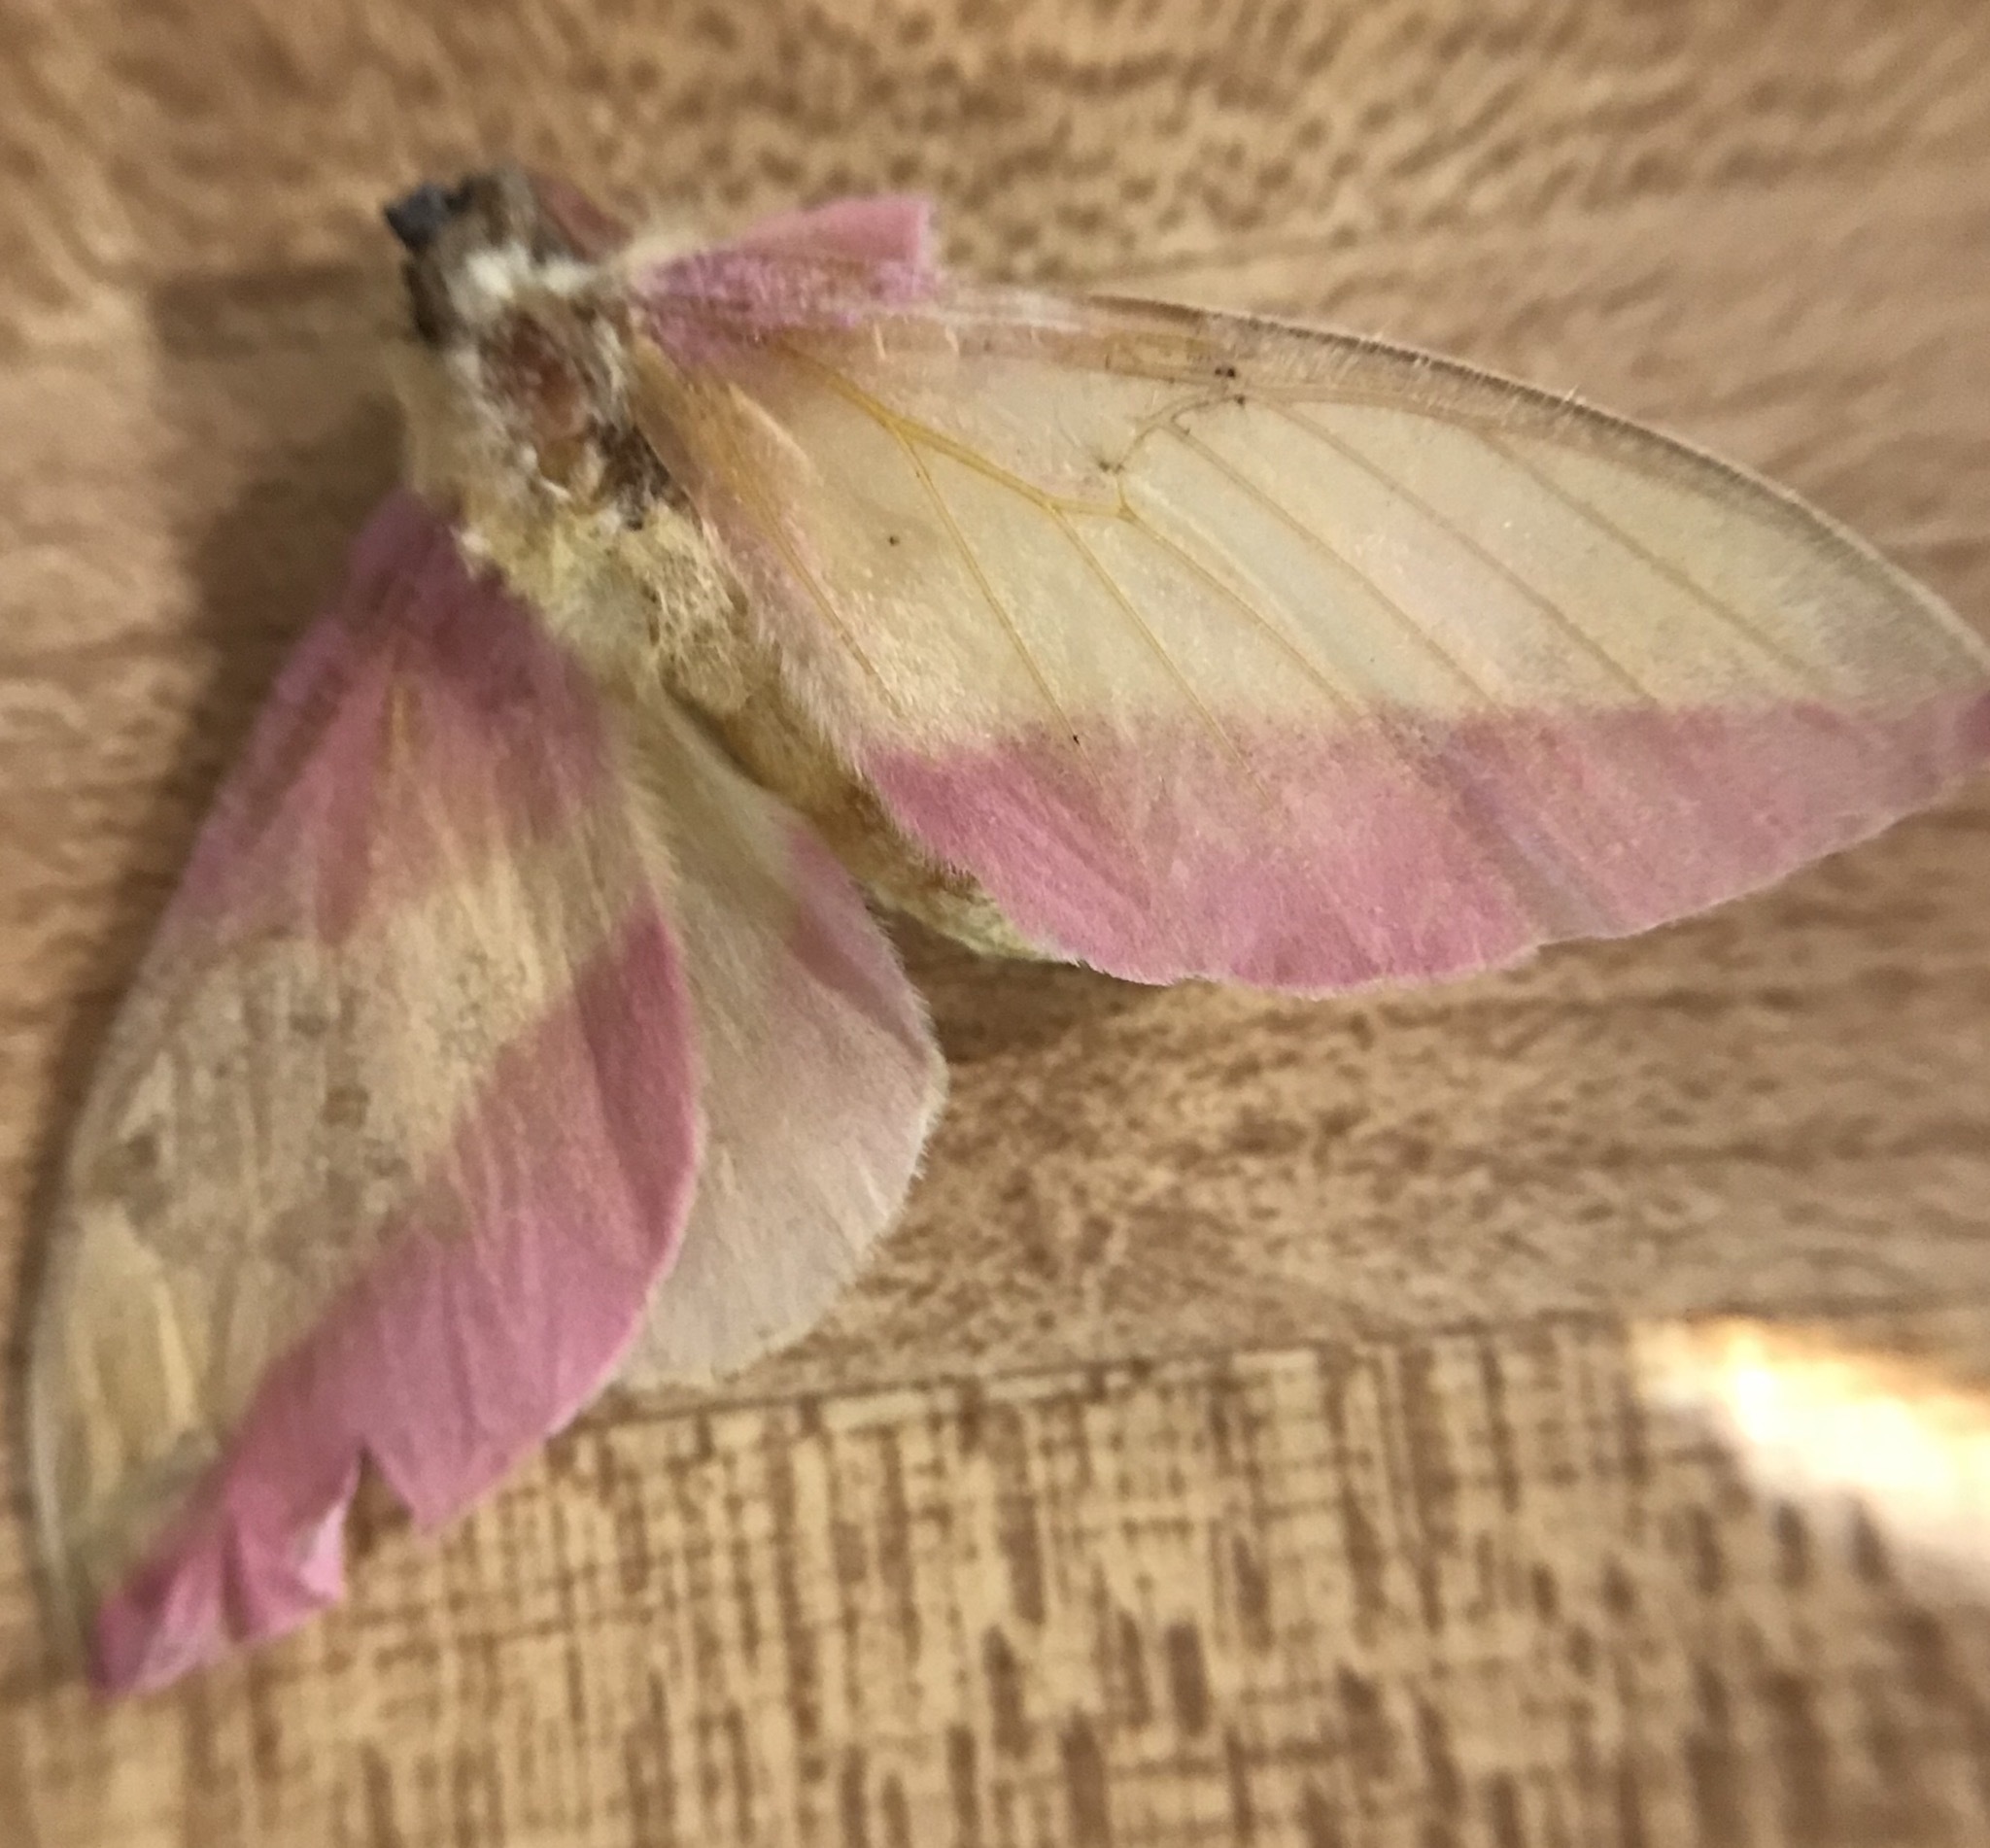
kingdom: Animalia
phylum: Arthropoda
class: Insecta
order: Lepidoptera
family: Saturniidae
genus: Dryocampa
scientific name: Dryocampa rubicunda
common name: Rosy maple moth
